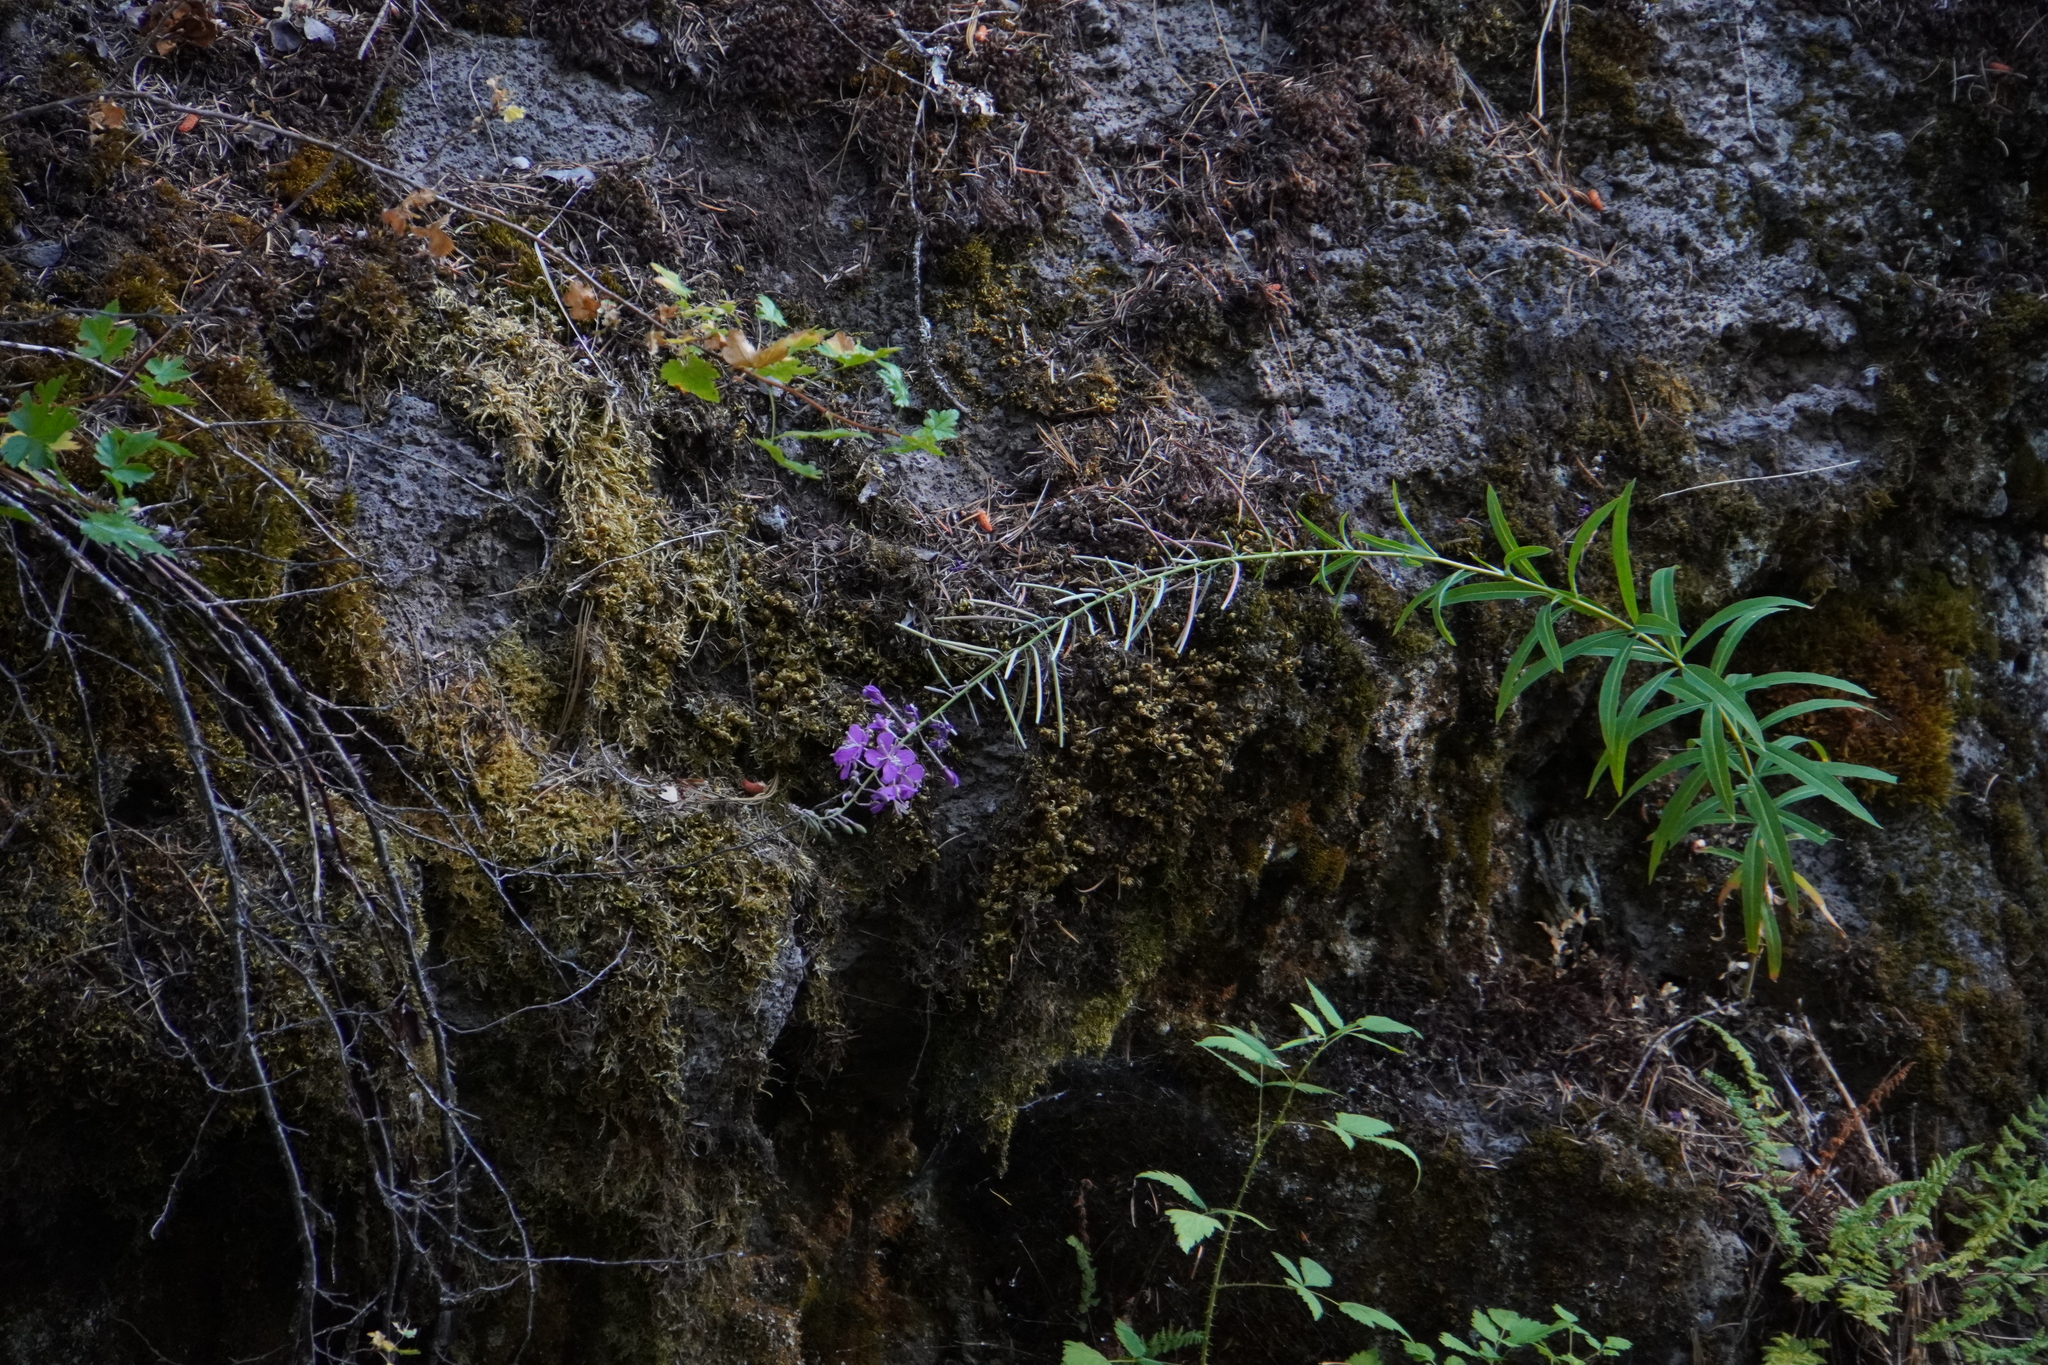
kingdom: Plantae
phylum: Tracheophyta
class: Magnoliopsida
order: Myrtales
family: Onagraceae
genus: Chamaenerion
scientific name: Chamaenerion angustifolium
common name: Fireweed
